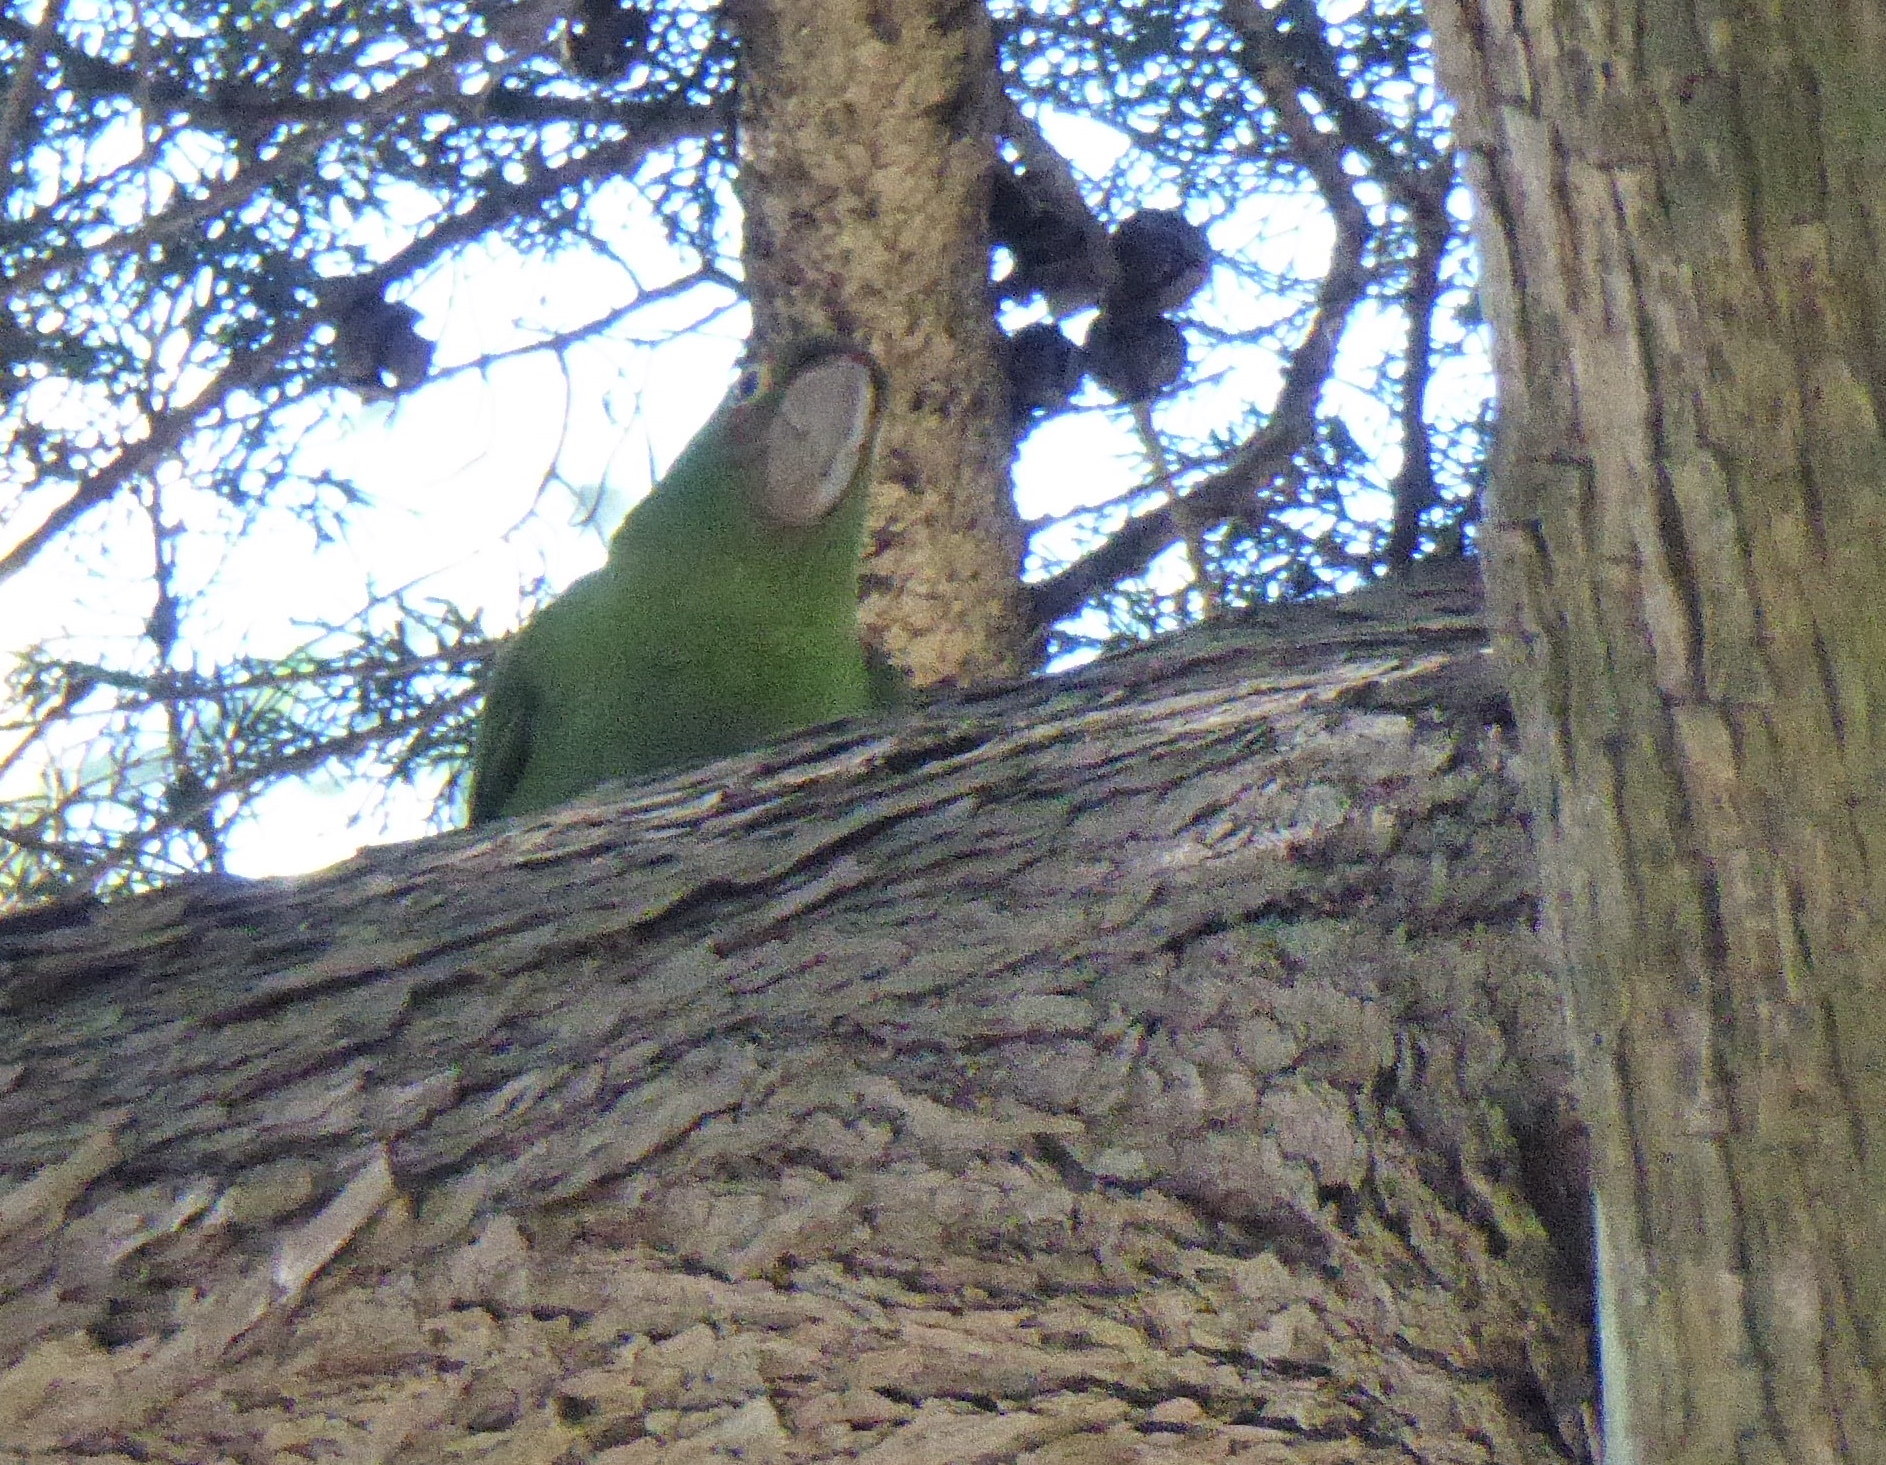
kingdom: Animalia
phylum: Chordata
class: Aves
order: Psittaciformes
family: Psittacidae
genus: Aratinga
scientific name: Aratinga erythrogenys
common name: Red-masked parakeet
